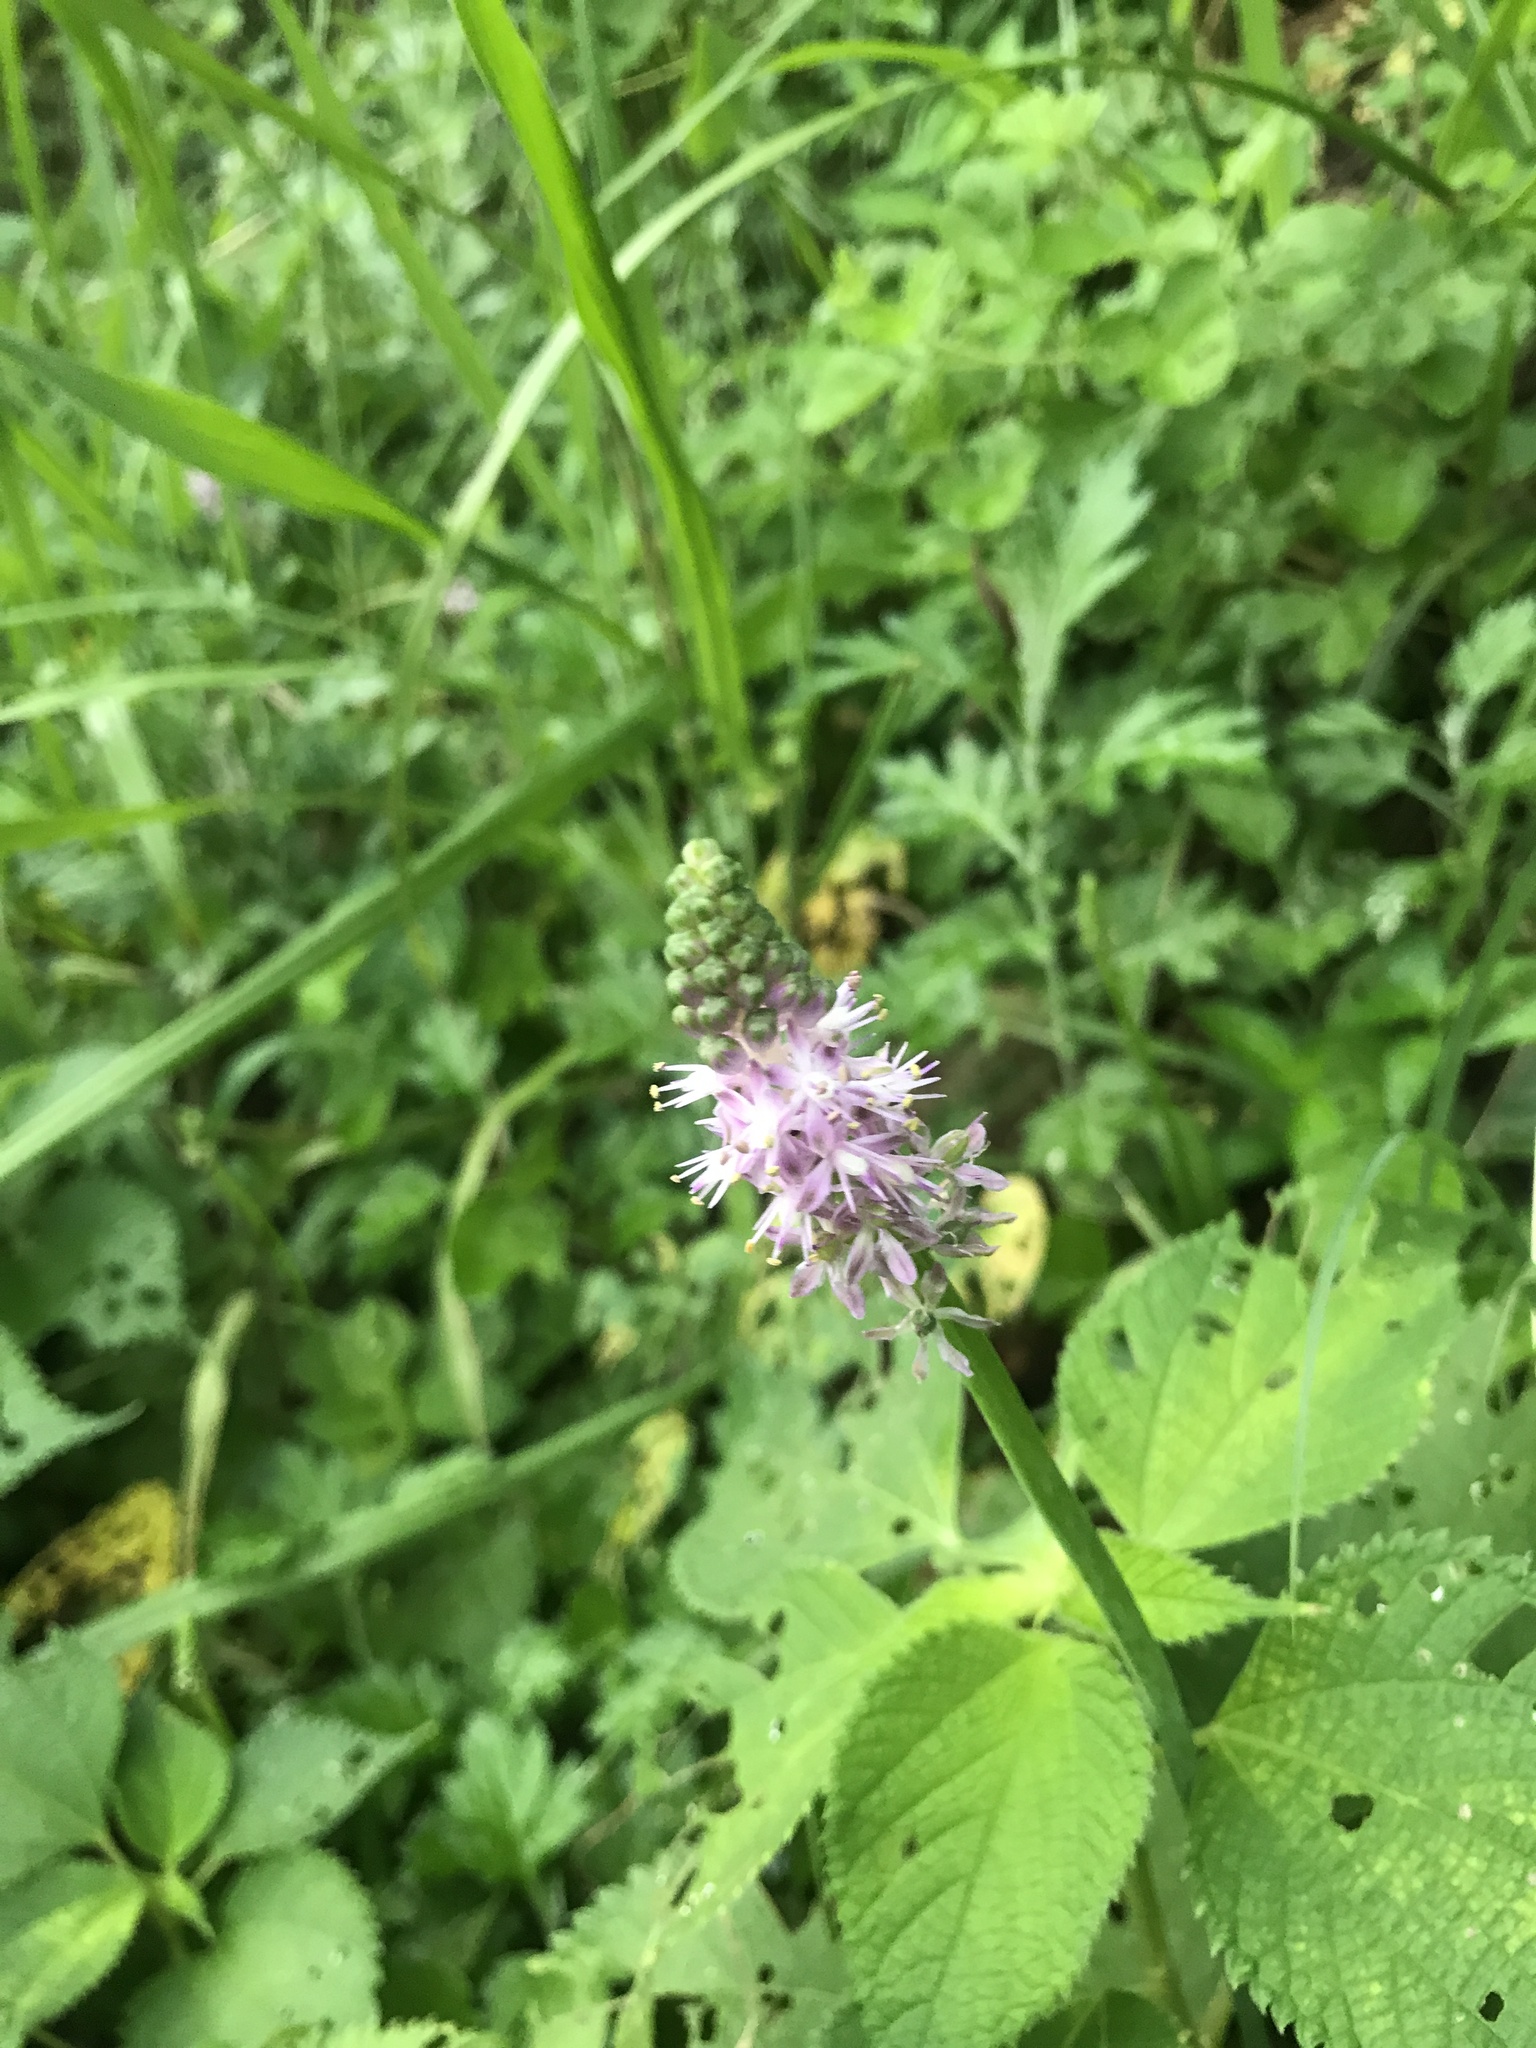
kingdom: Plantae
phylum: Tracheophyta
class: Liliopsida
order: Asparagales
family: Asparagaceae
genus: Barnardia
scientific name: Barnardia japonica
